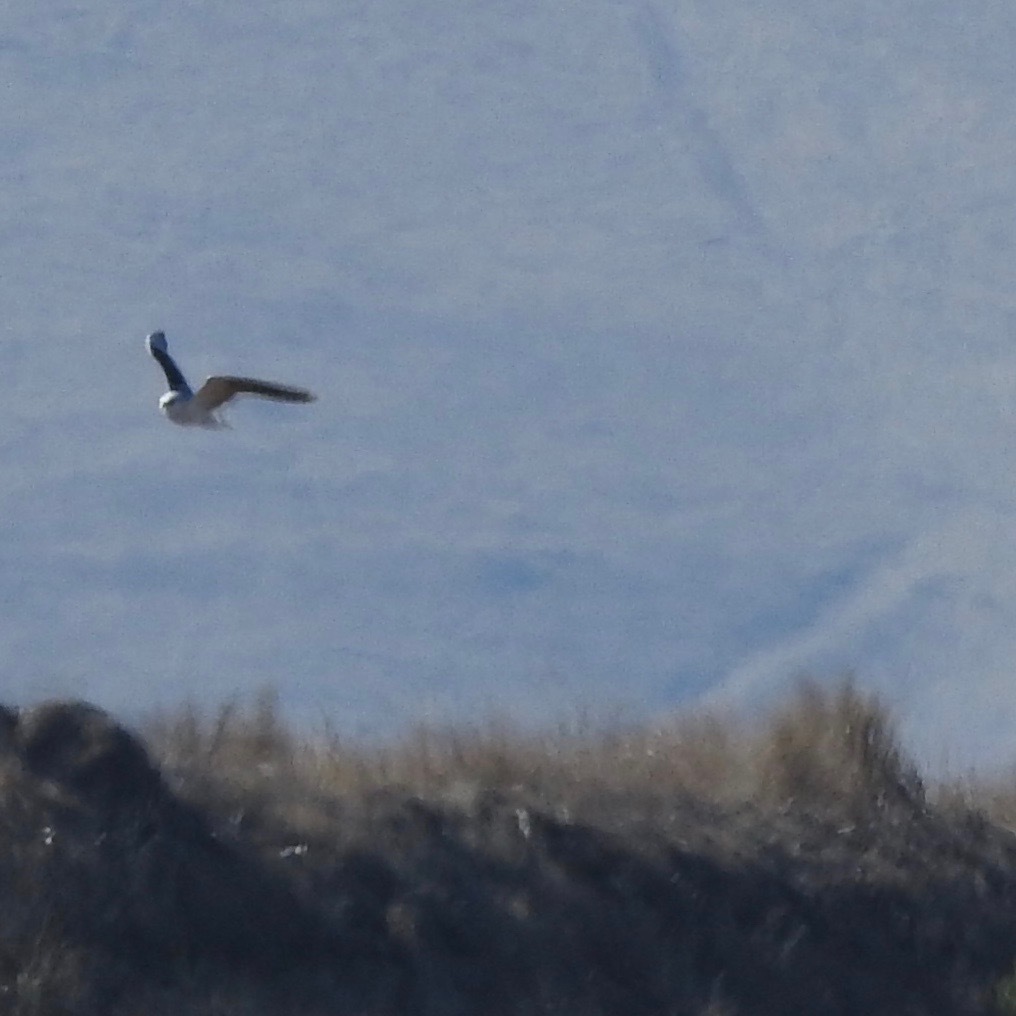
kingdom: Animalia
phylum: Chordata
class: Aves
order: Accipitriformes
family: Accipitridae
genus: Elanus
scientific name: Elanus leucurus
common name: White-tailed kite
